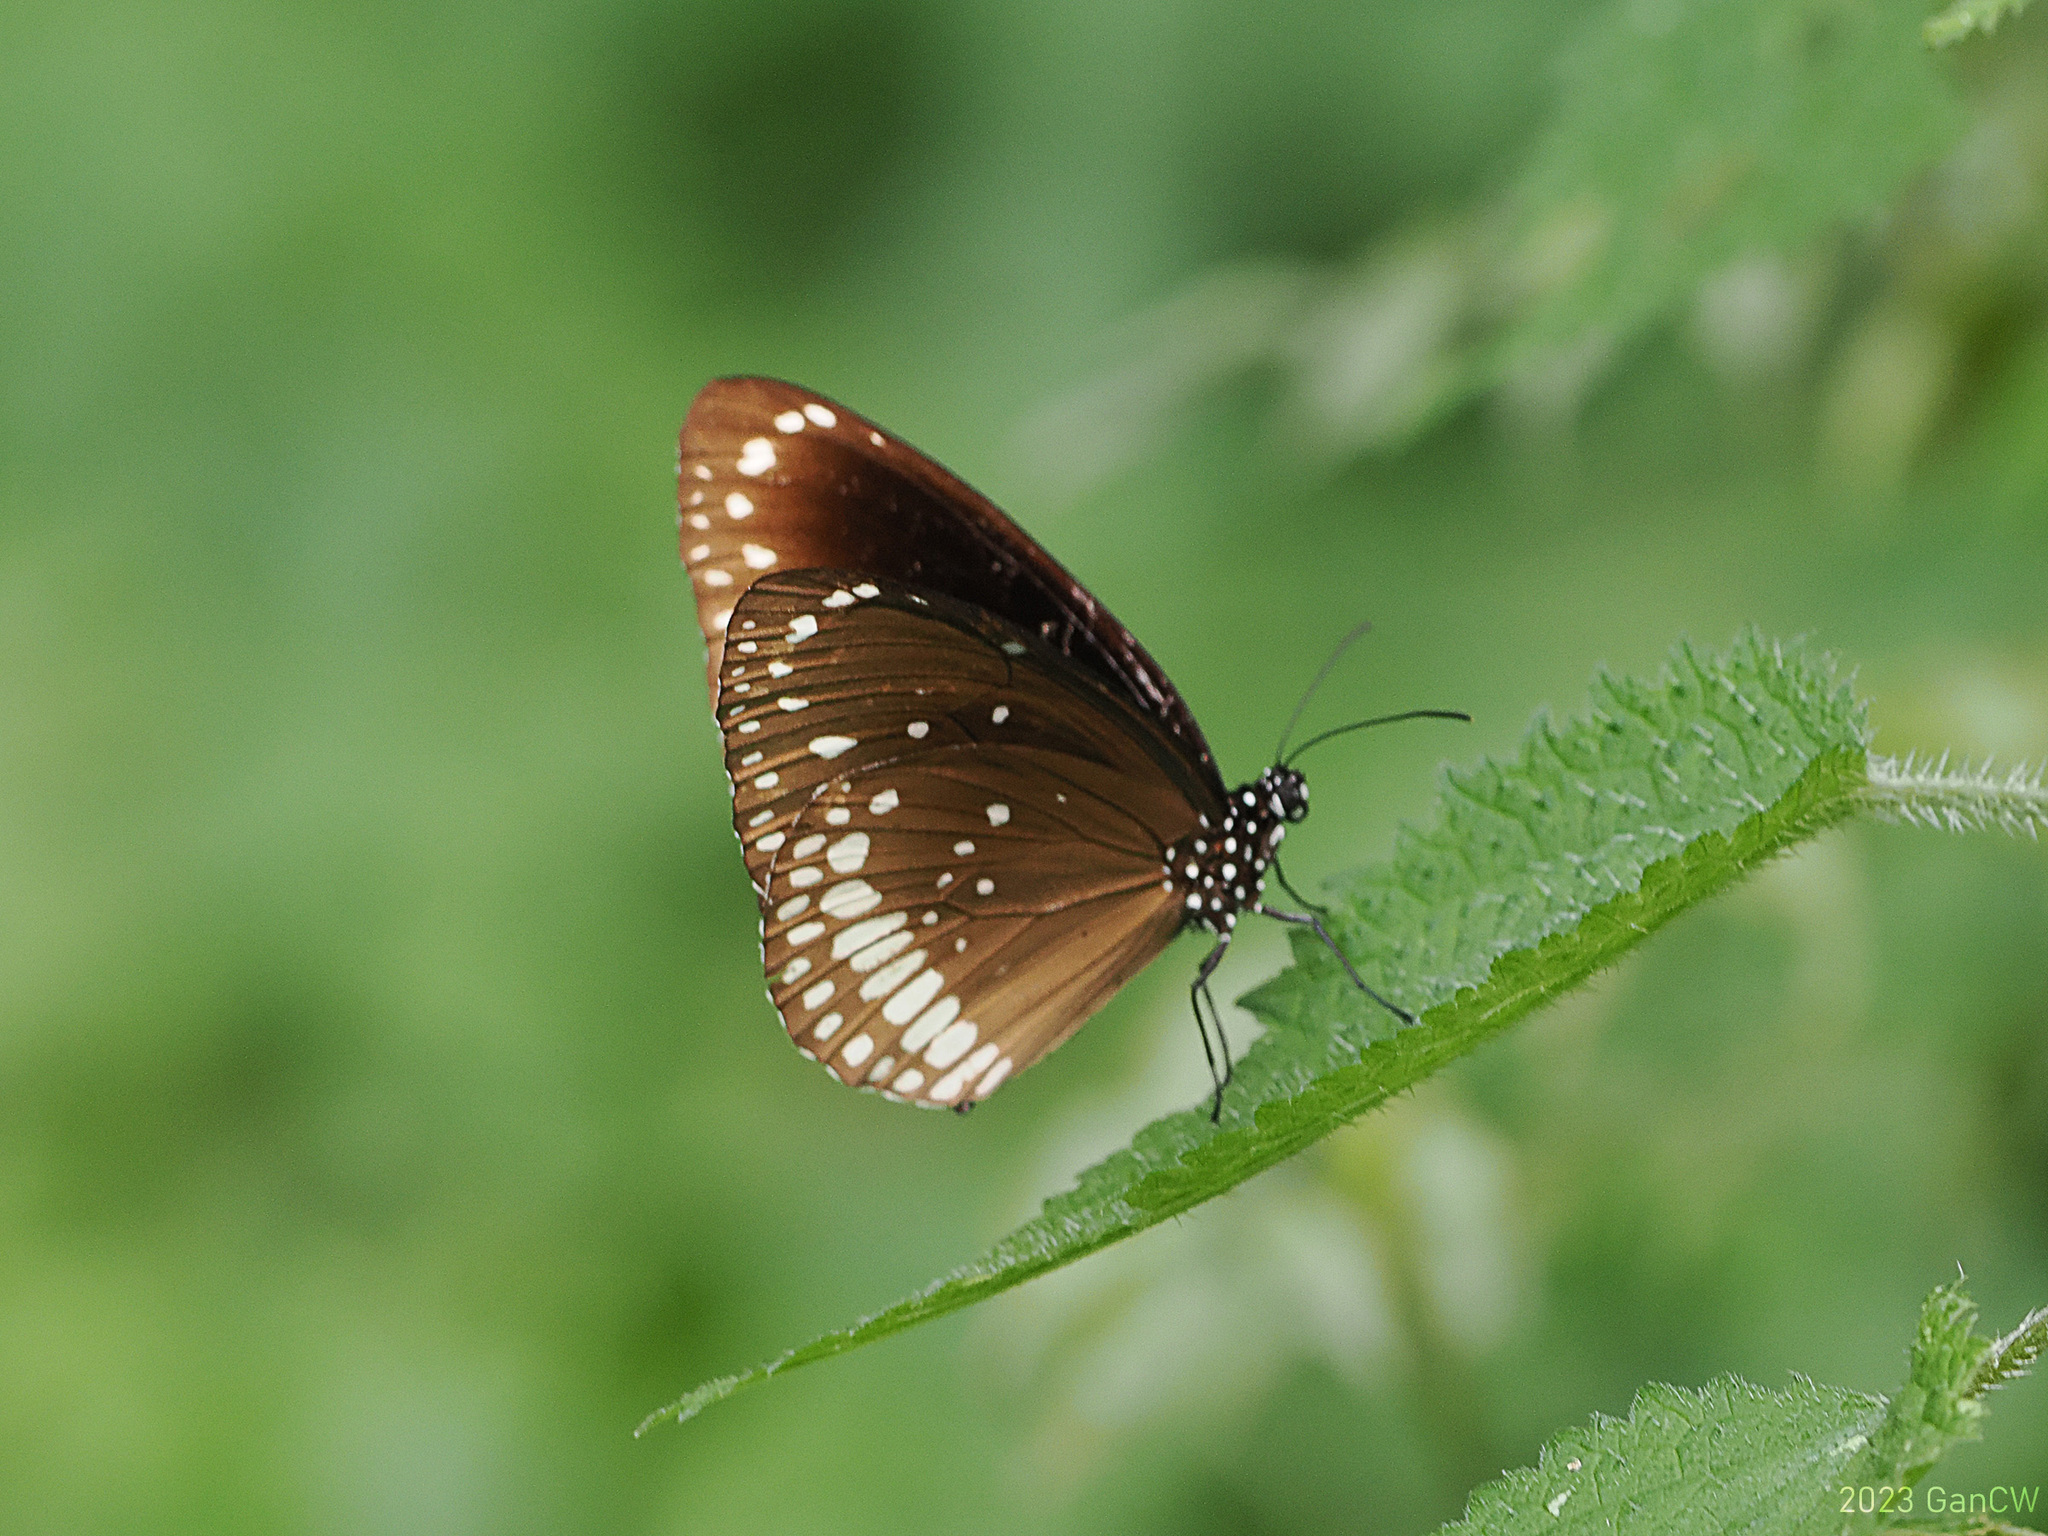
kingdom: Animalia
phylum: Arthropoda
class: Insecta
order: Lepidoptera
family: Nymphalidae
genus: Euploea
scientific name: Euploea core
